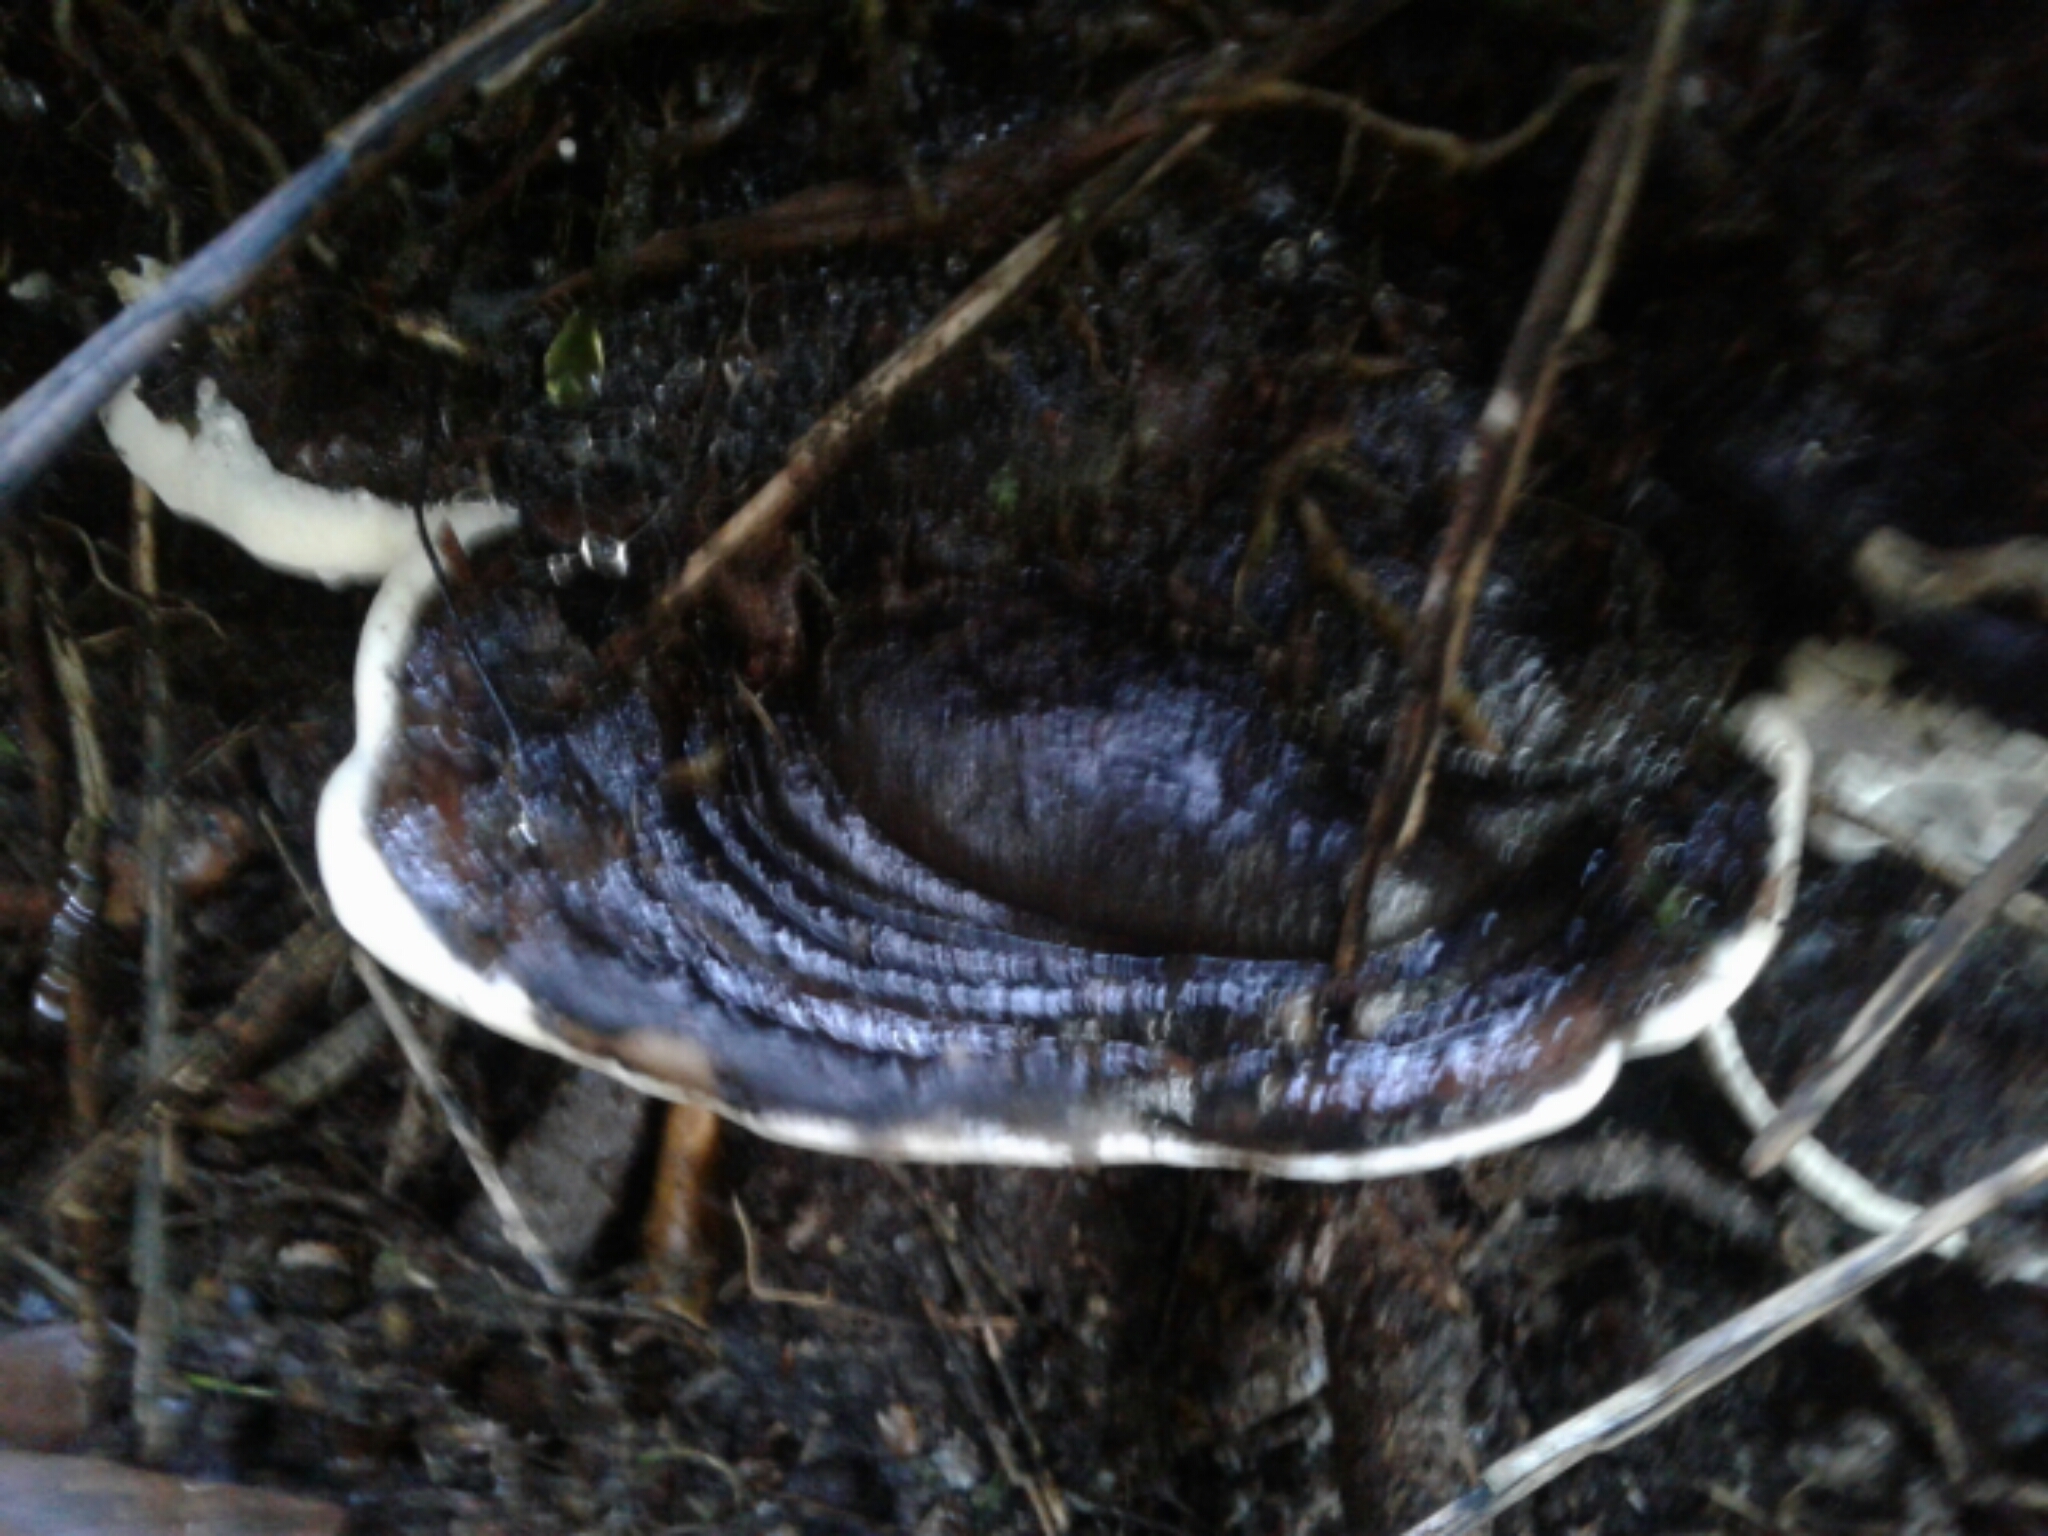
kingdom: Fungi
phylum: Basidiomycota
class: Agaricomycetes
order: Polyporales
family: Polyporaceae
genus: Ganoderma
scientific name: Ganoderma
